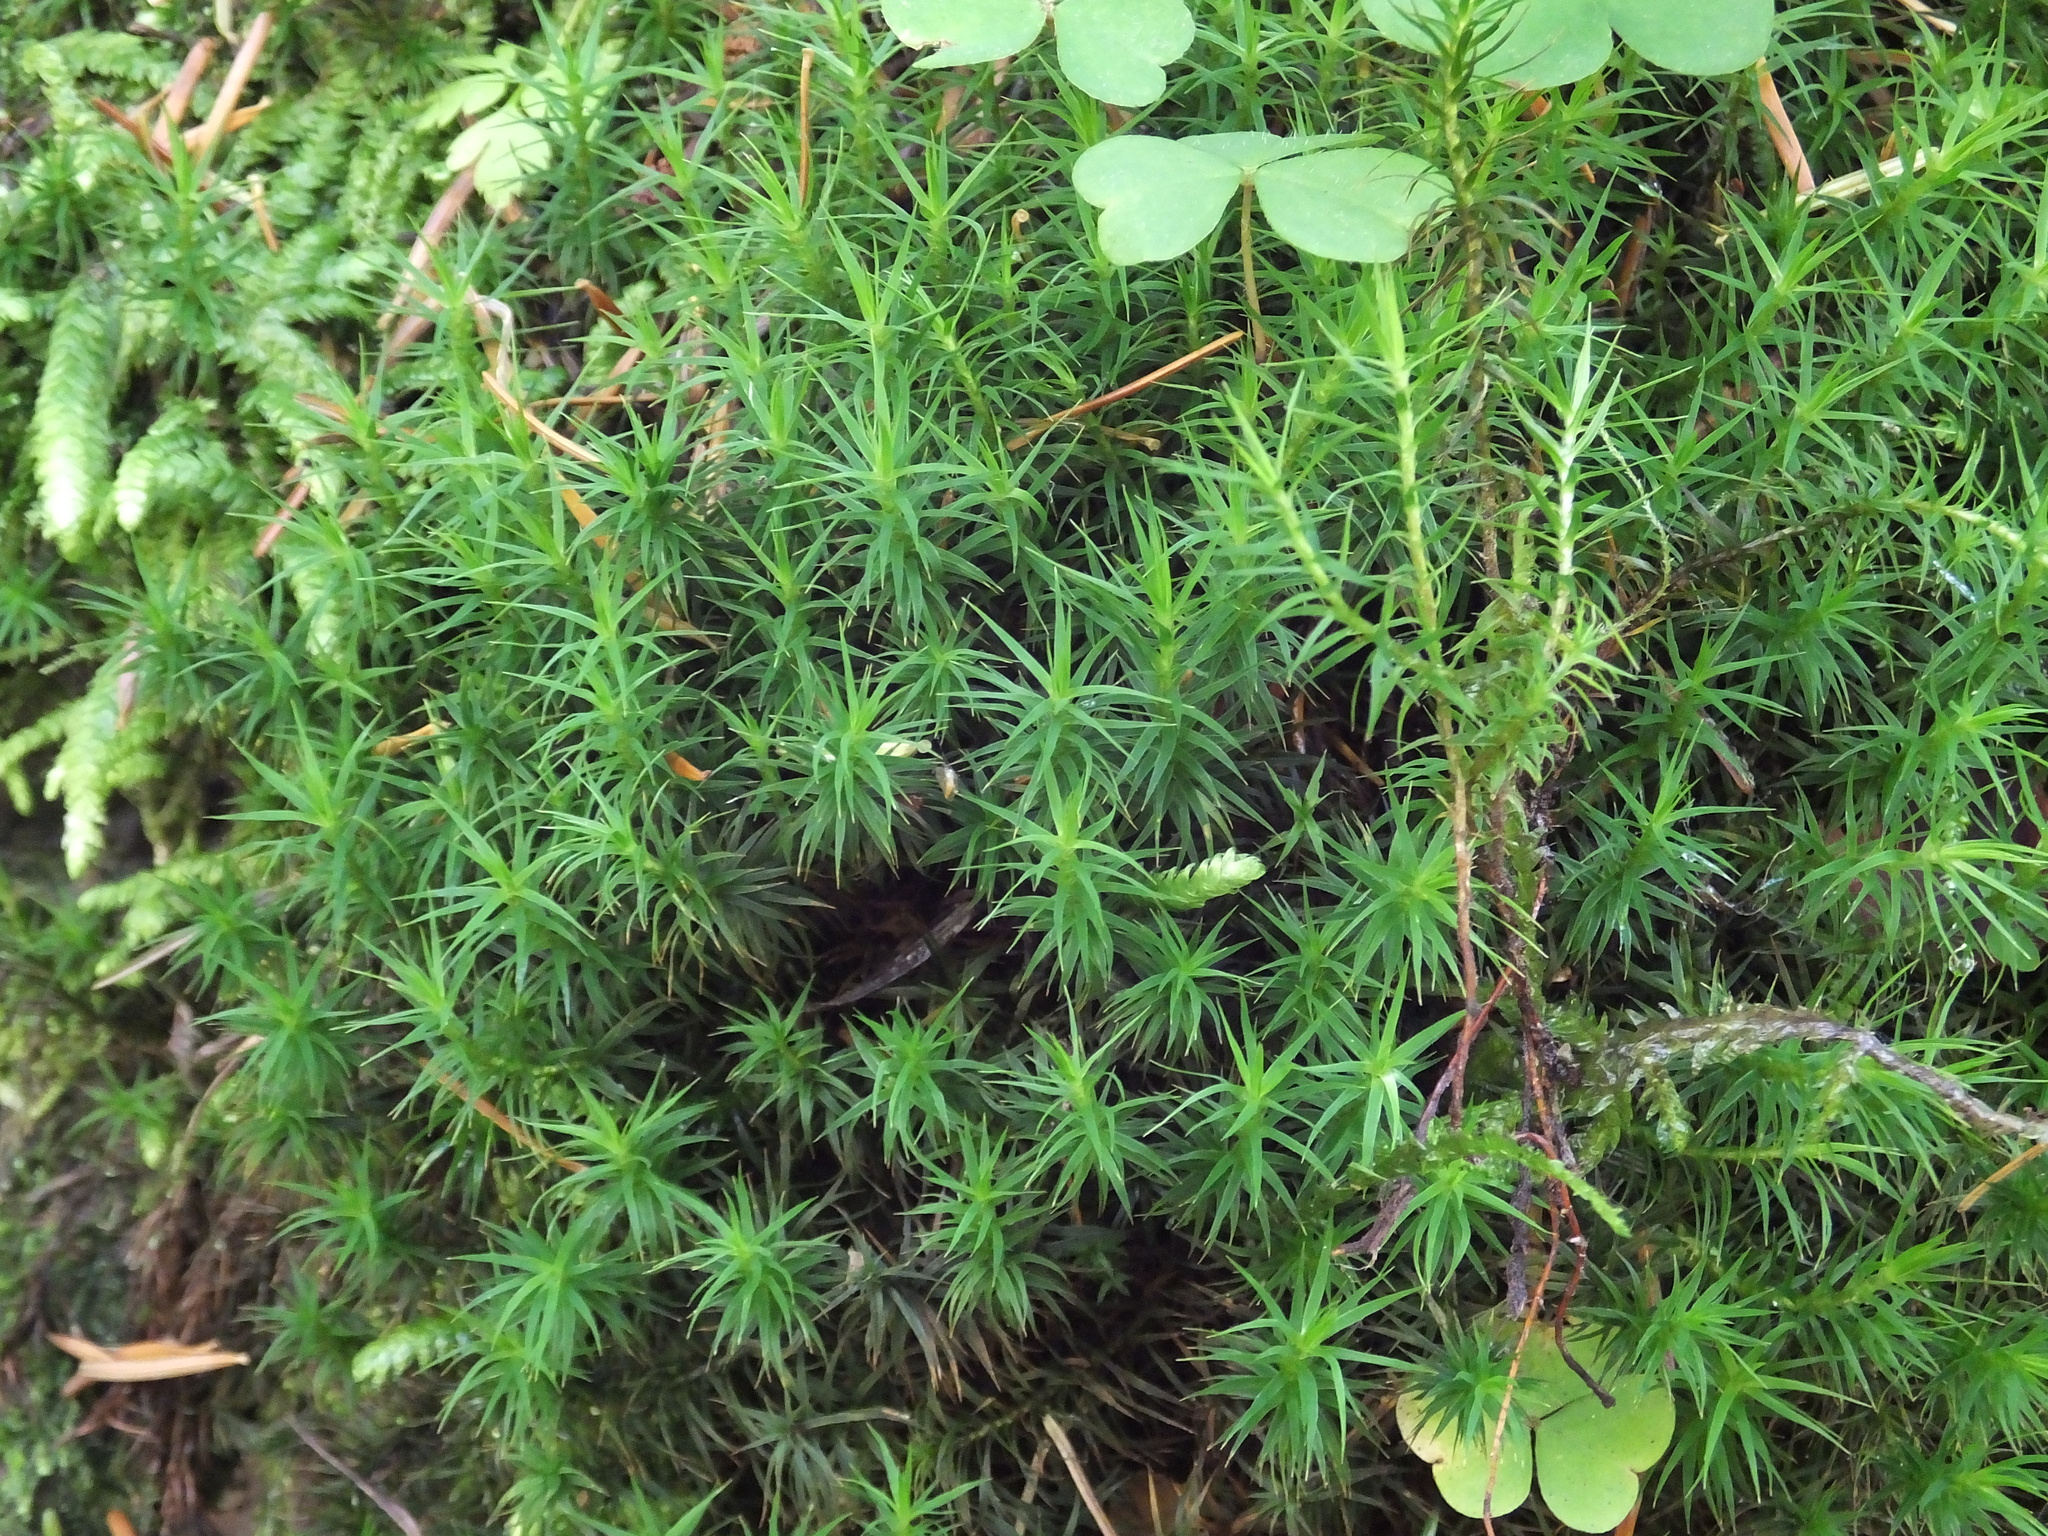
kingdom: Plantae
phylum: Bryophyta
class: Polytrichopsida
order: Polytrichales
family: Polytrichaceae
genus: Polytrichum
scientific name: Polytrichum formosum
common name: Bank haircap moss
